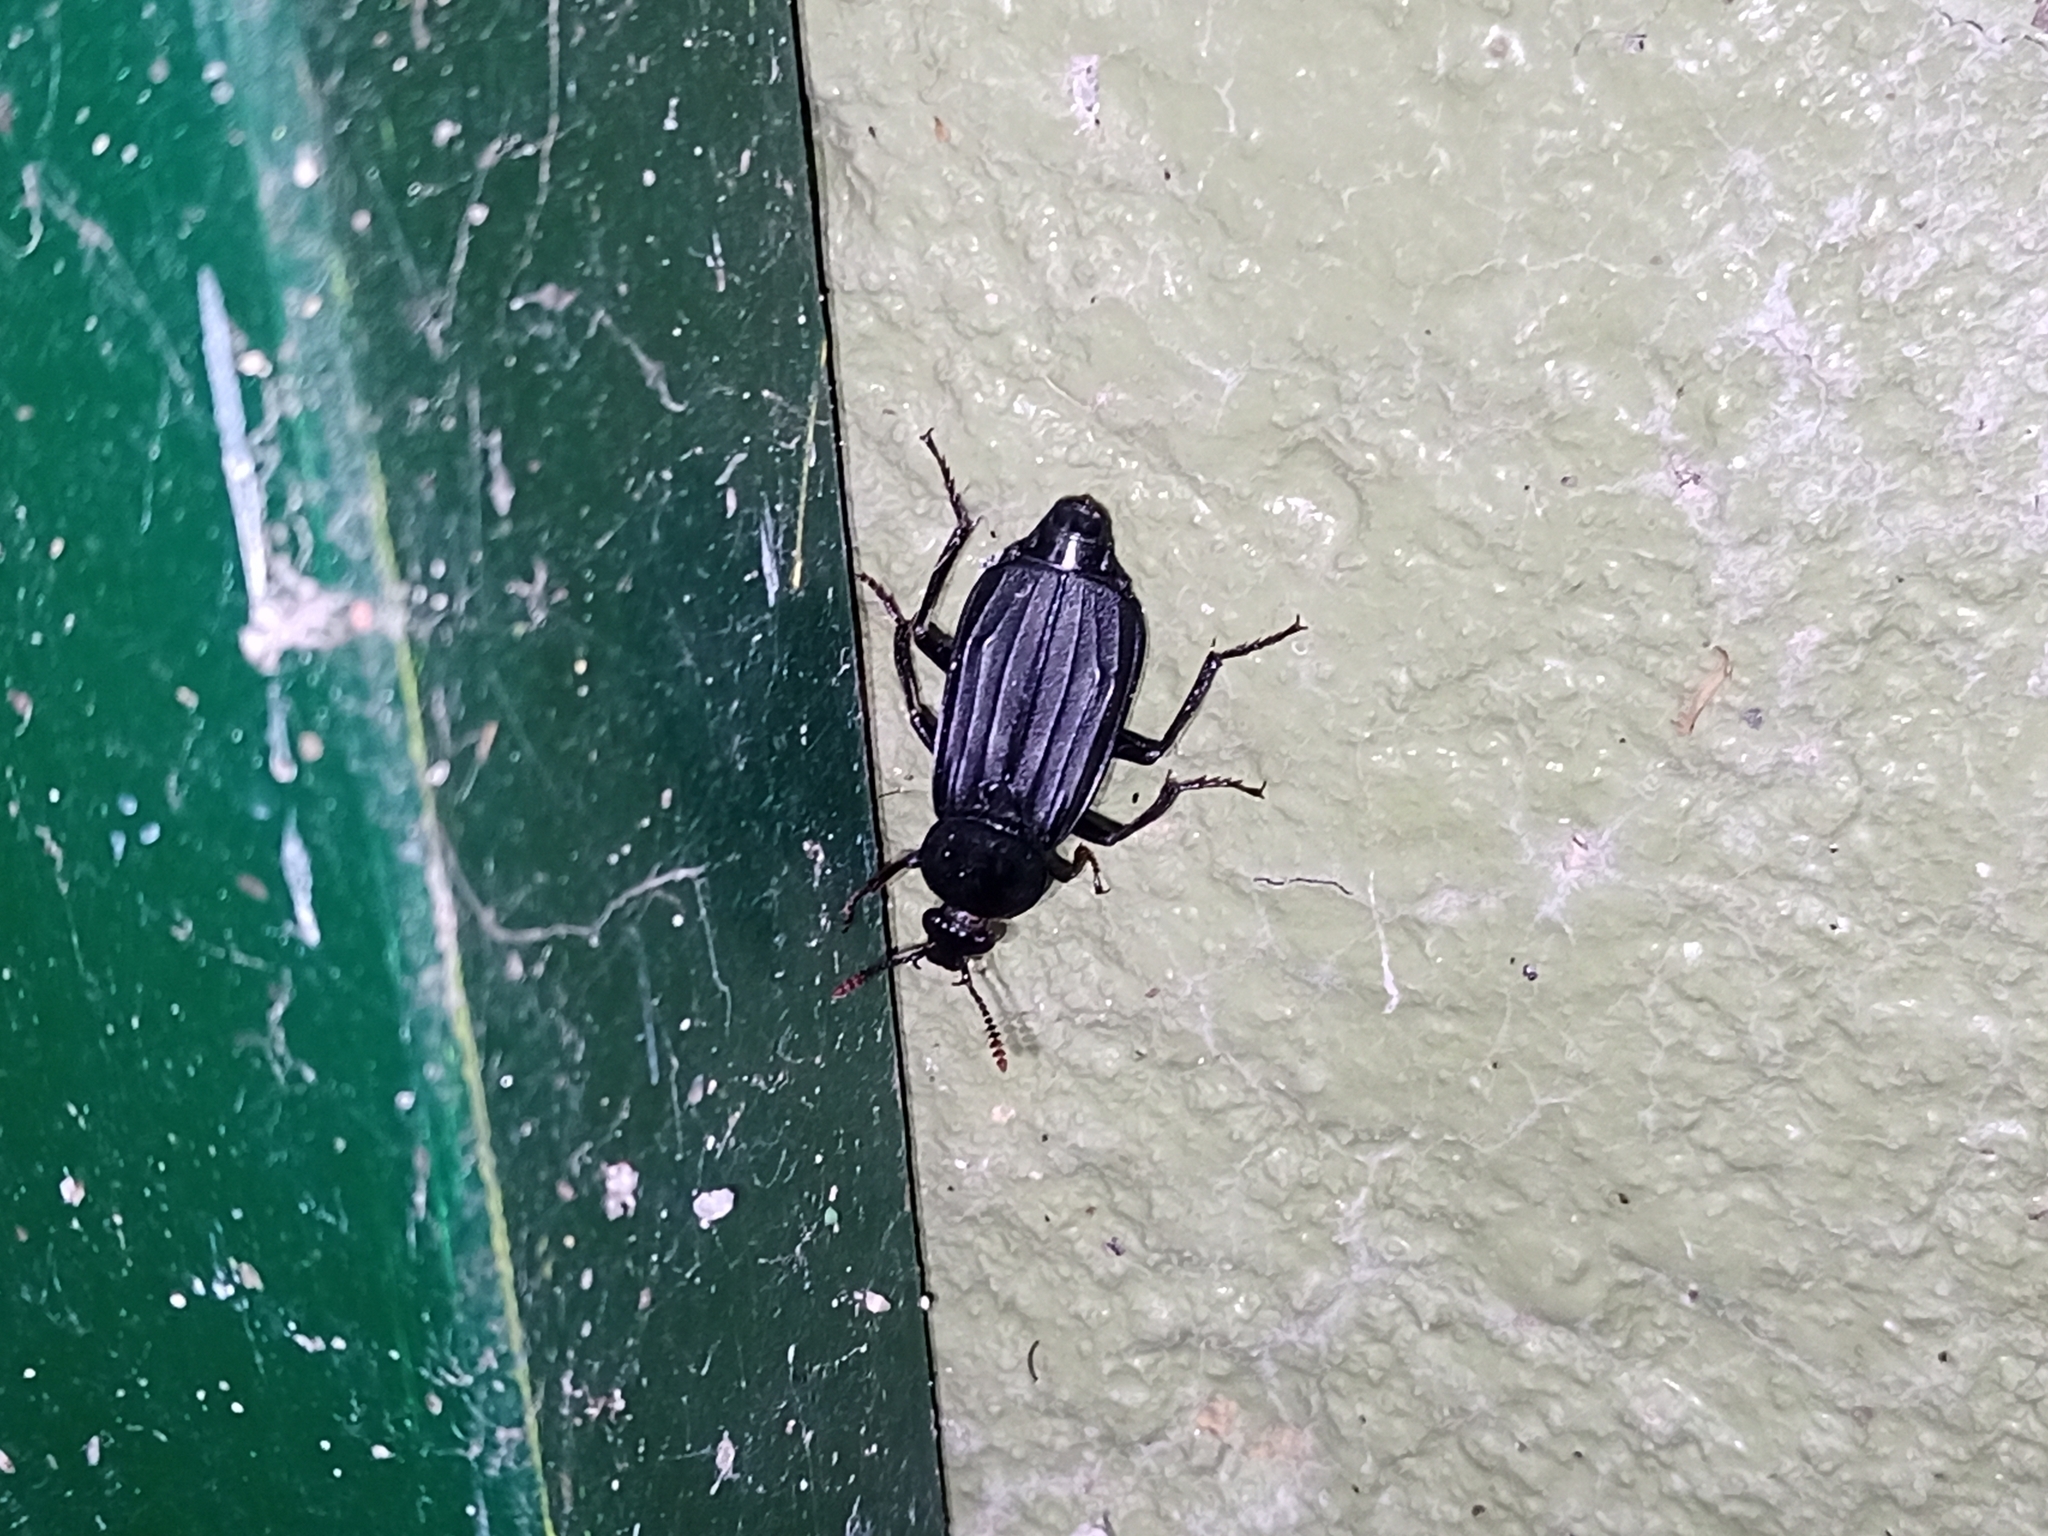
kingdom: Animalia
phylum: Arthropoda
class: Insecta
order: Coleoptera
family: Staphylinidae
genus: Necrodes
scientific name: Necrodes littoralis
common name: Shore sexton beetle
